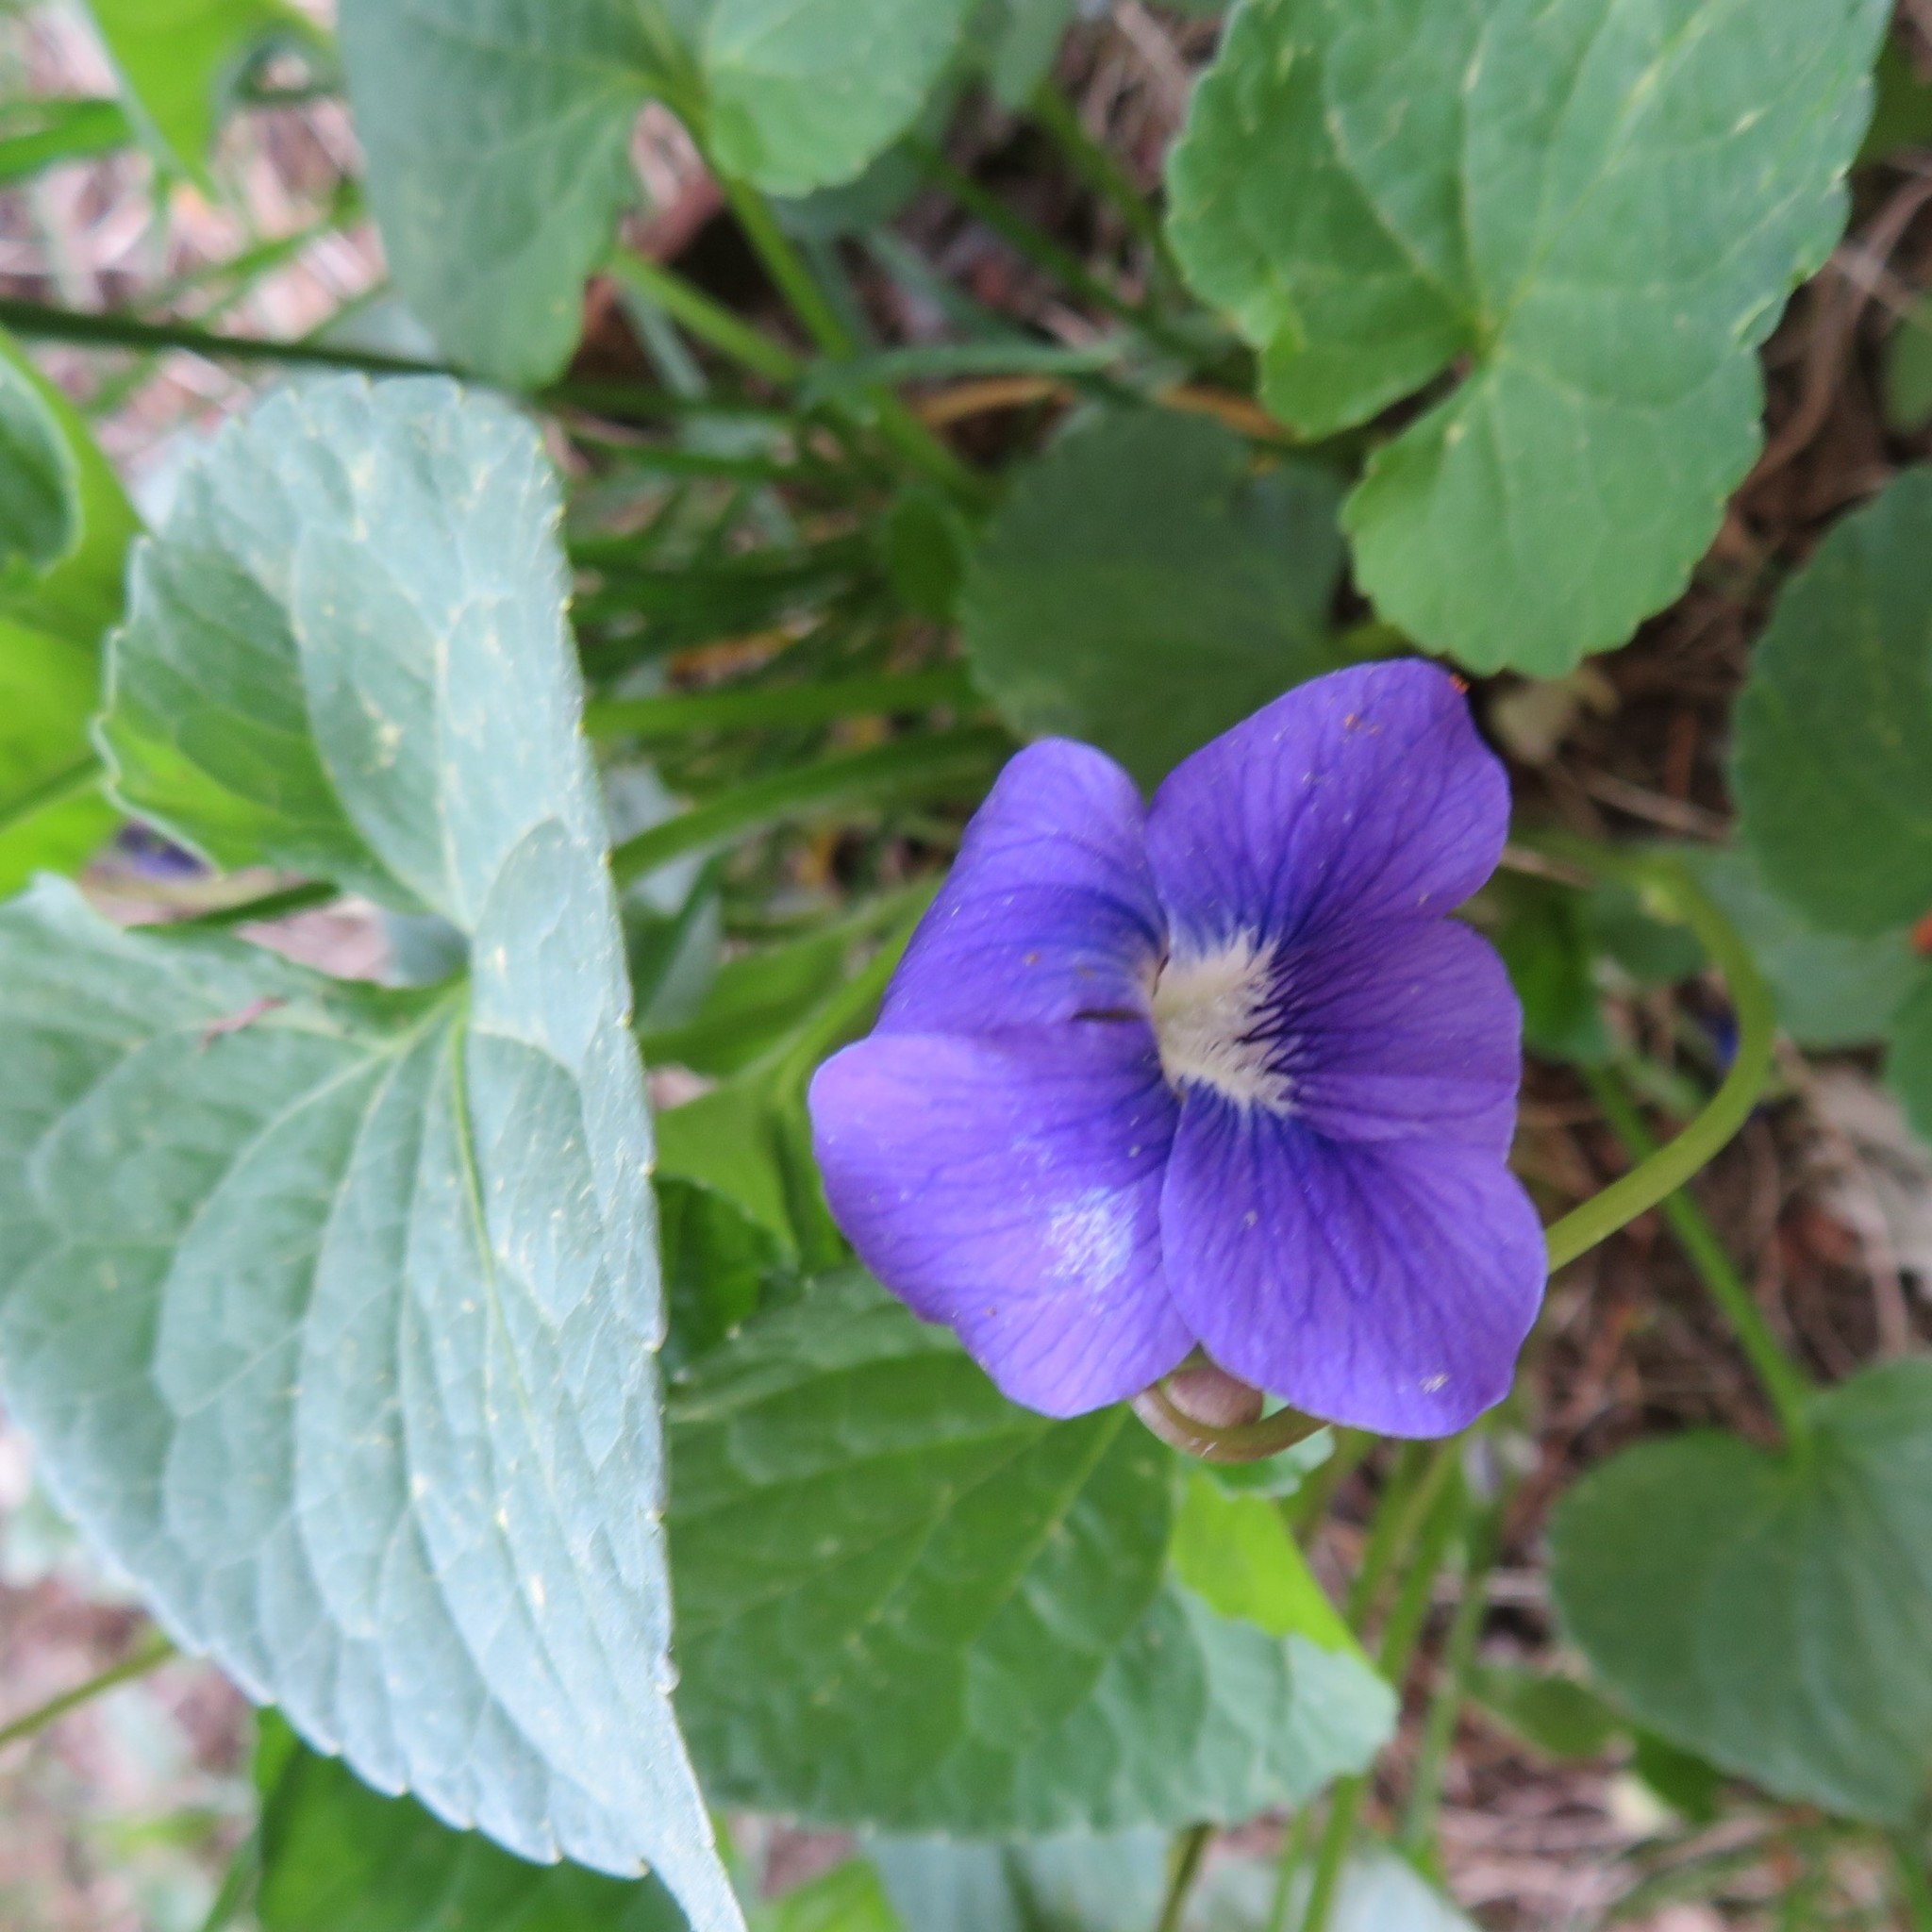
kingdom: Plantae
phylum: Tracheophyta
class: Magnoliopsida
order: Malpighiales
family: Violaceae
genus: Viola
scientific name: Viola sororia
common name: Dooryard violet
